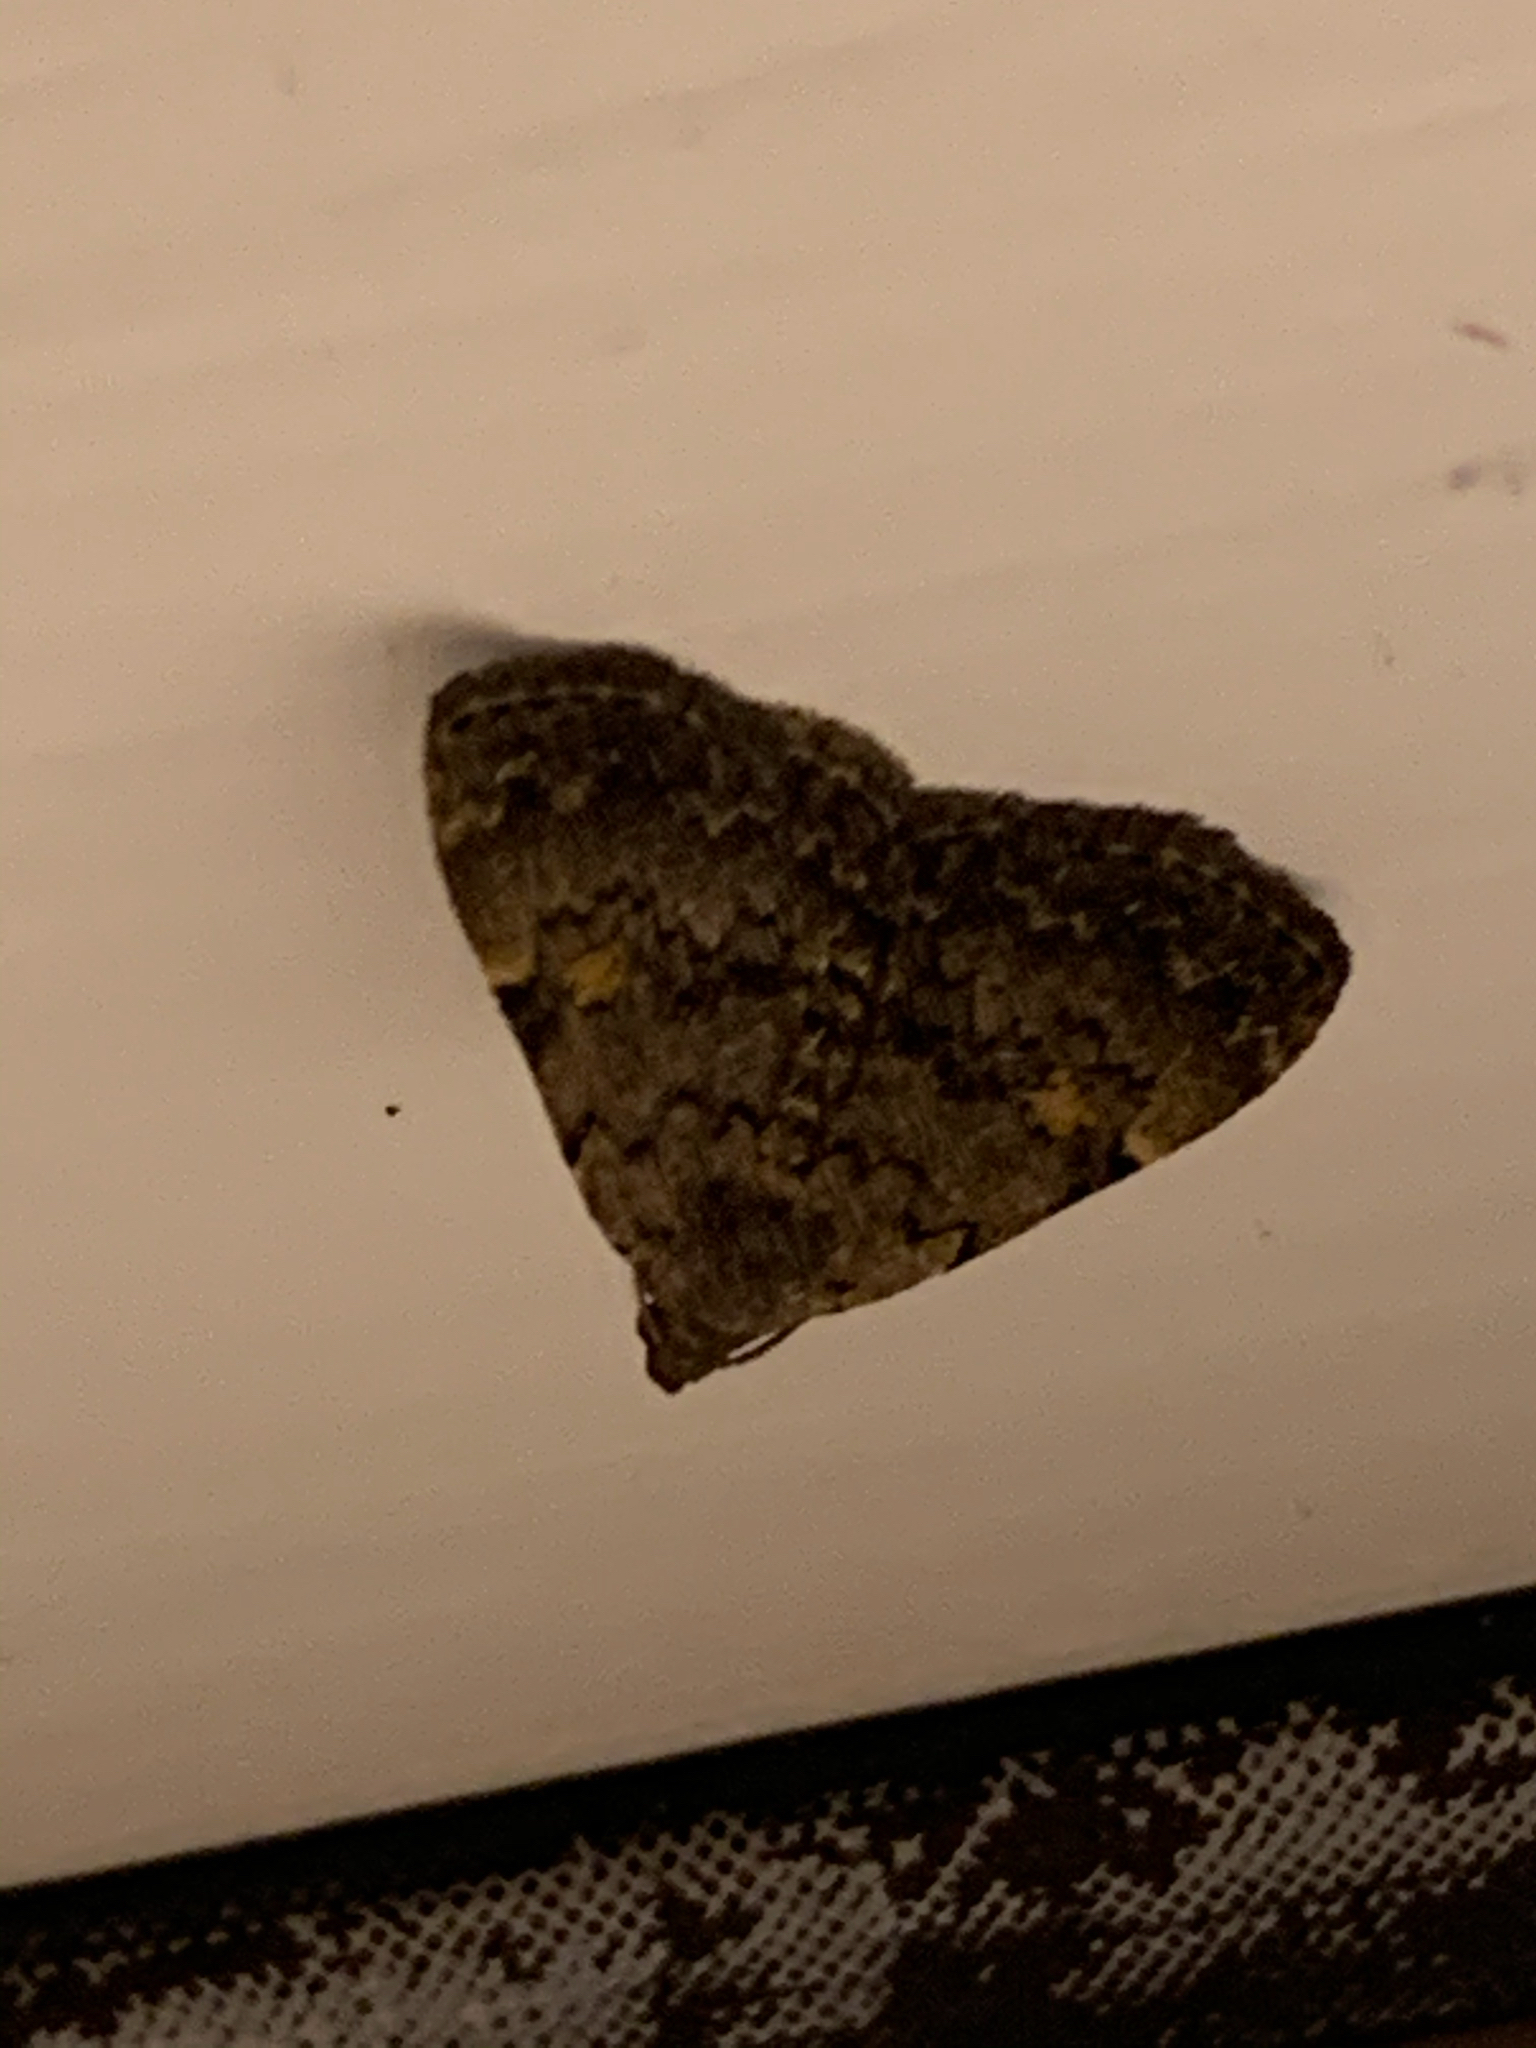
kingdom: Animalia
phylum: Arthropoda
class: Insecta
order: Lepidoptera
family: Erebidae
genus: Idia
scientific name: Idia aemula
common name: Common idia moth
